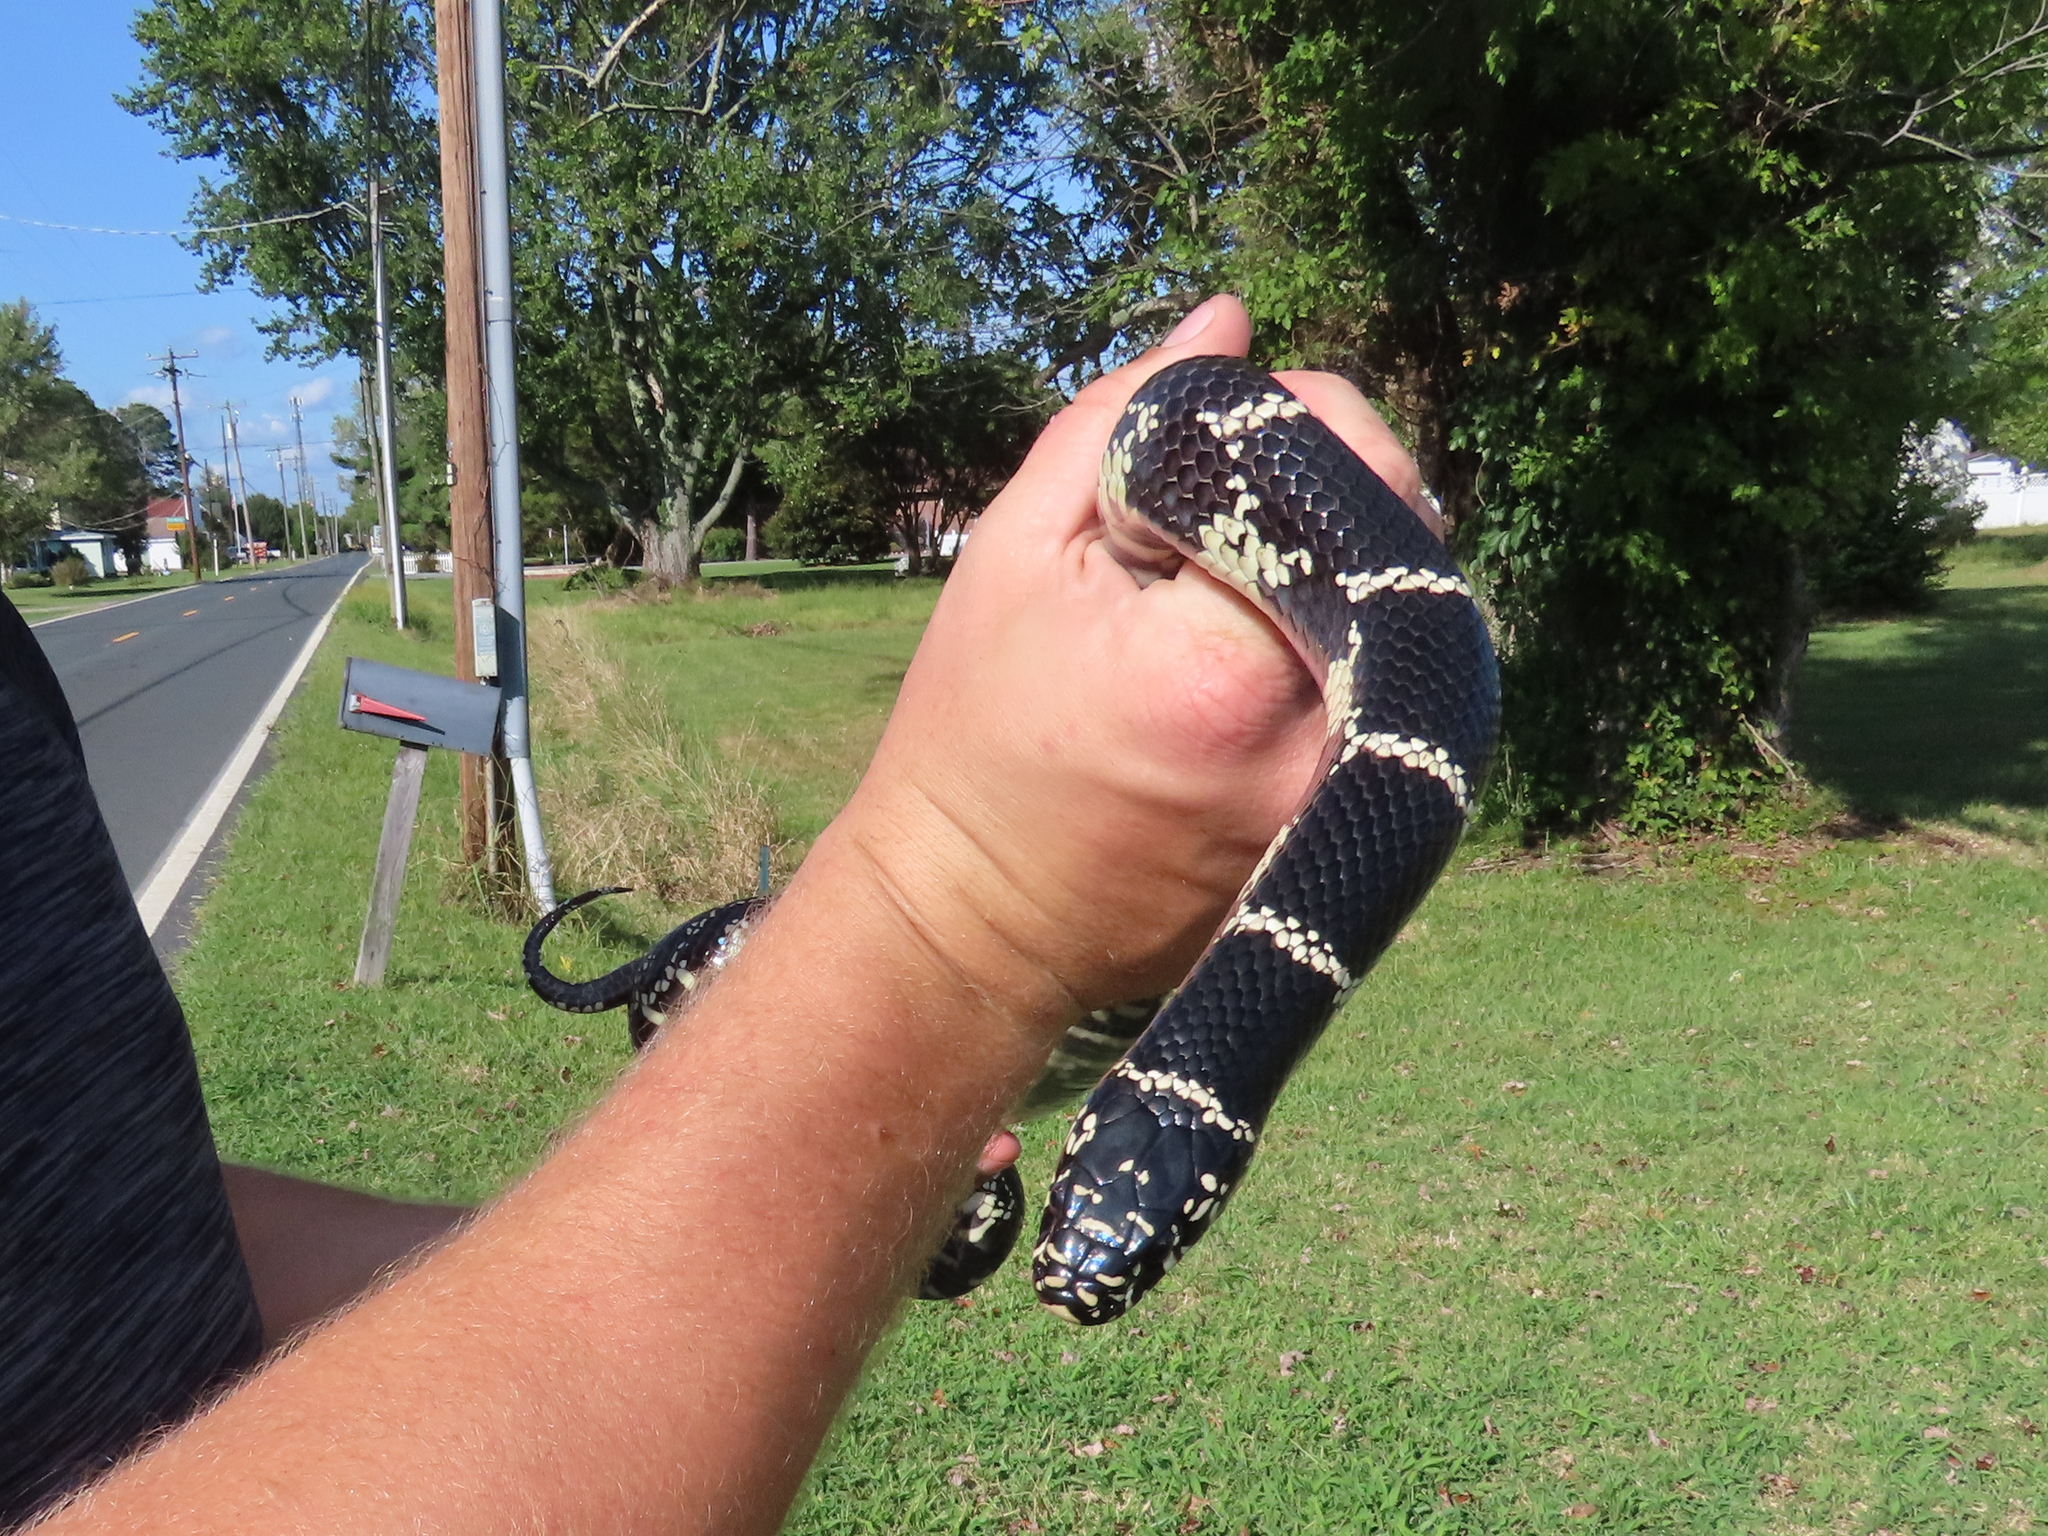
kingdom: Animalia
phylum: Chordata
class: Squamata
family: Colubridae
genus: Lampropeltis
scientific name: Lampropeltis getula
